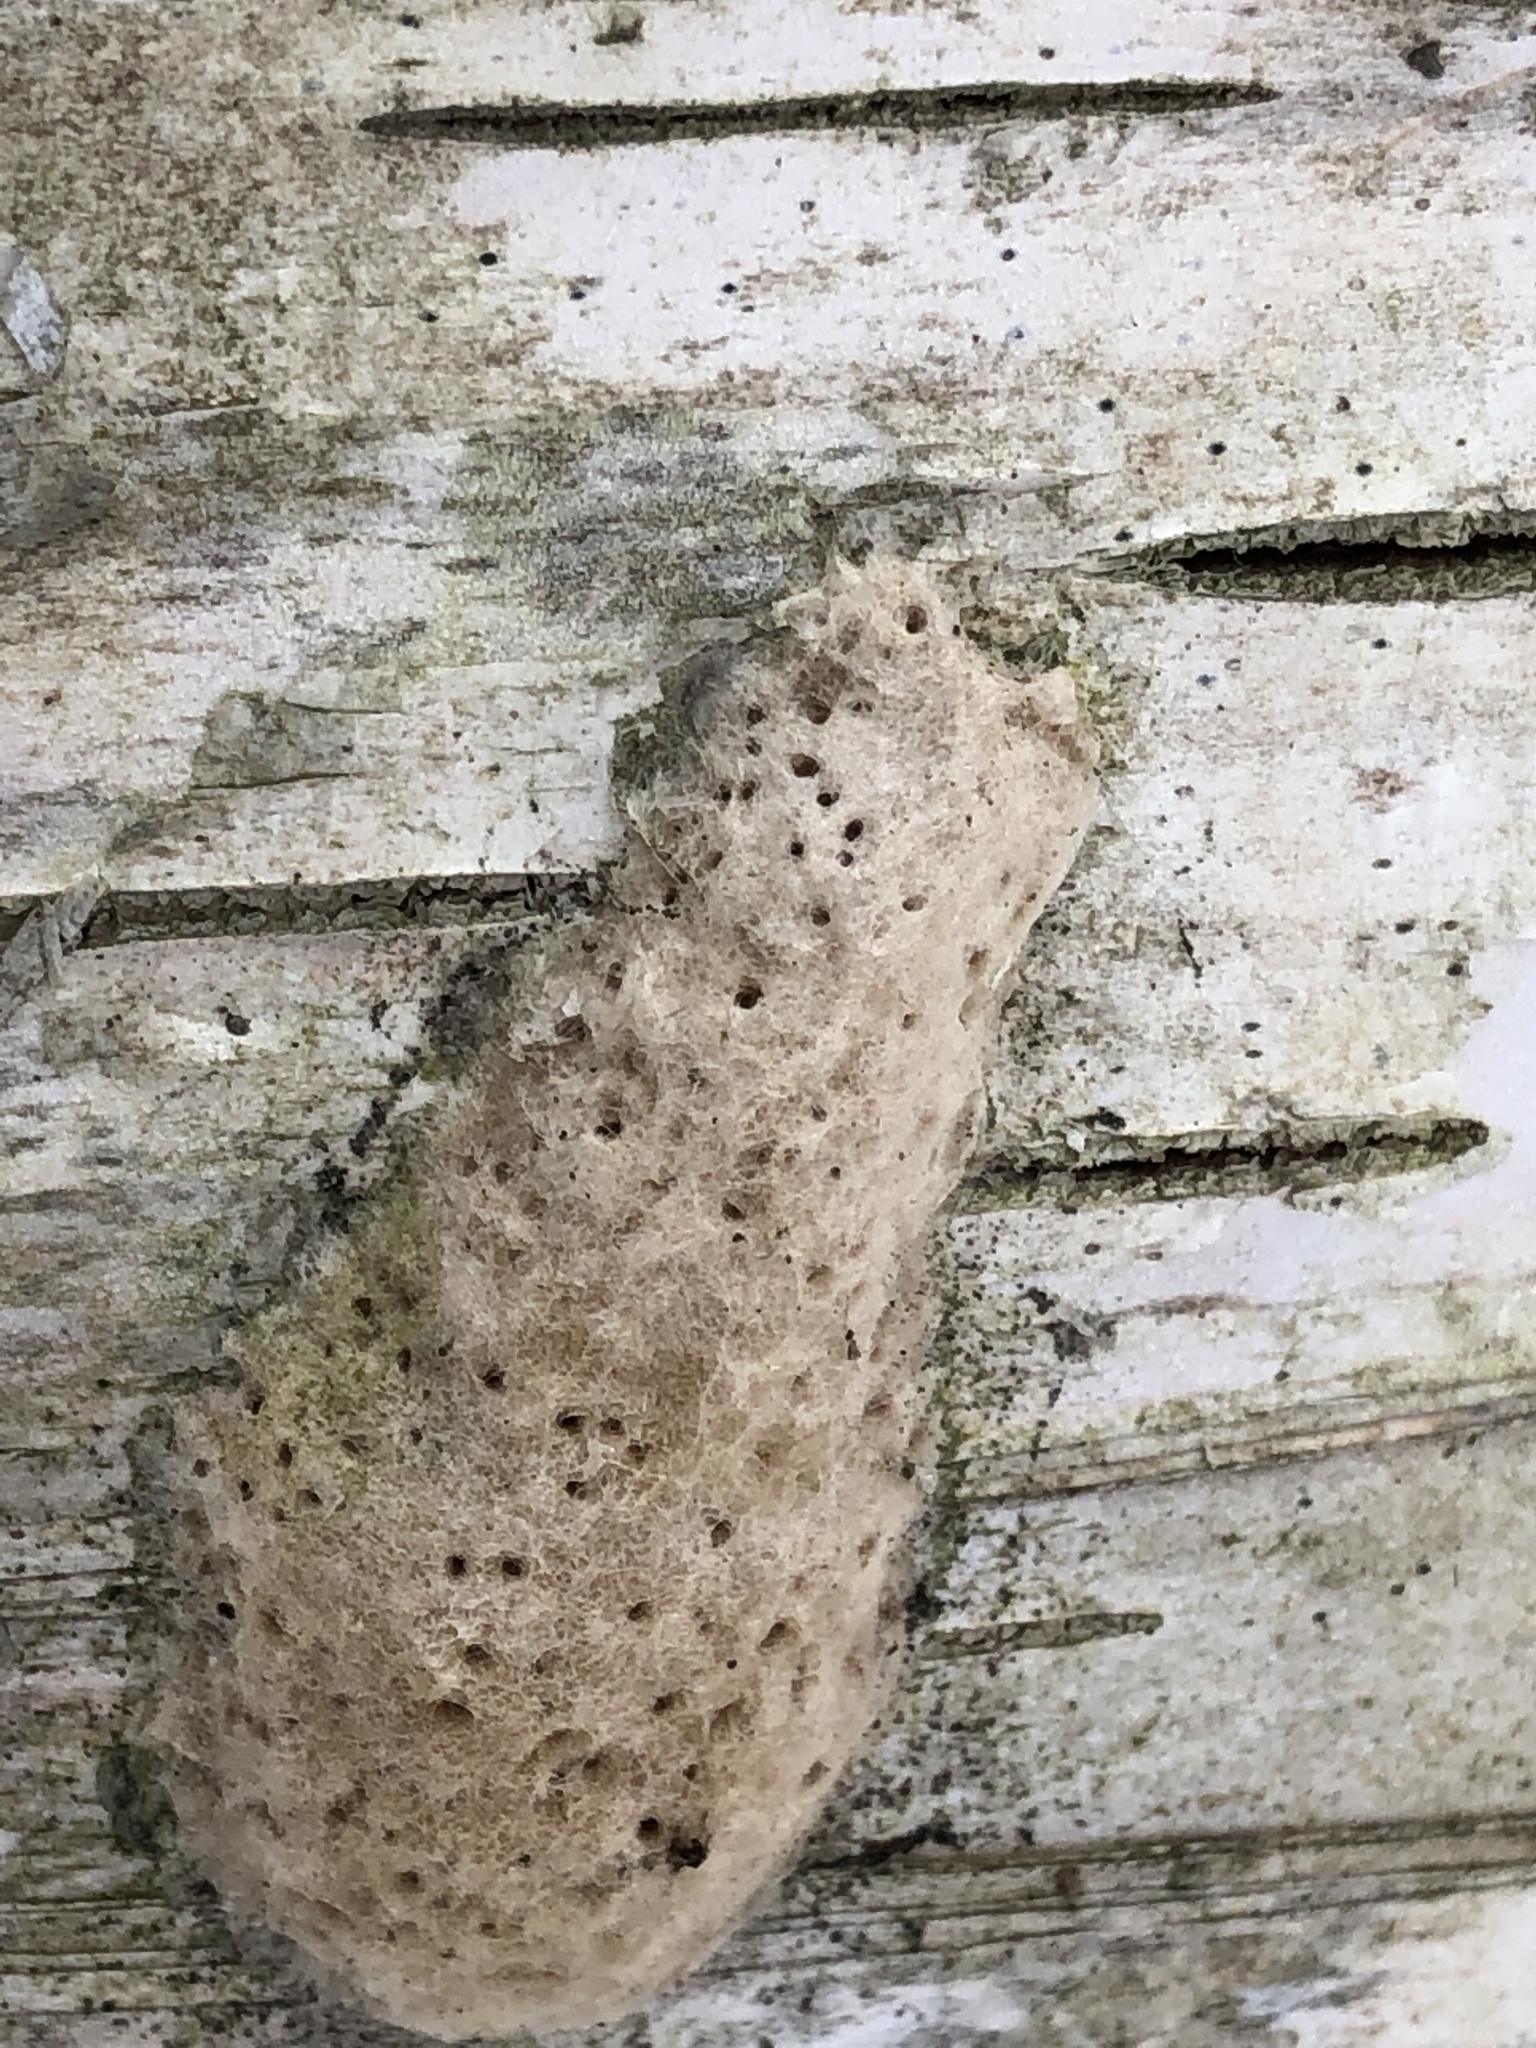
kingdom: Animalia
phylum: Arthropoda
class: Insecta
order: Lepidoptera
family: Erebidae
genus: Lymantria
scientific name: Lymantria dispar
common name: Gypsy moth
